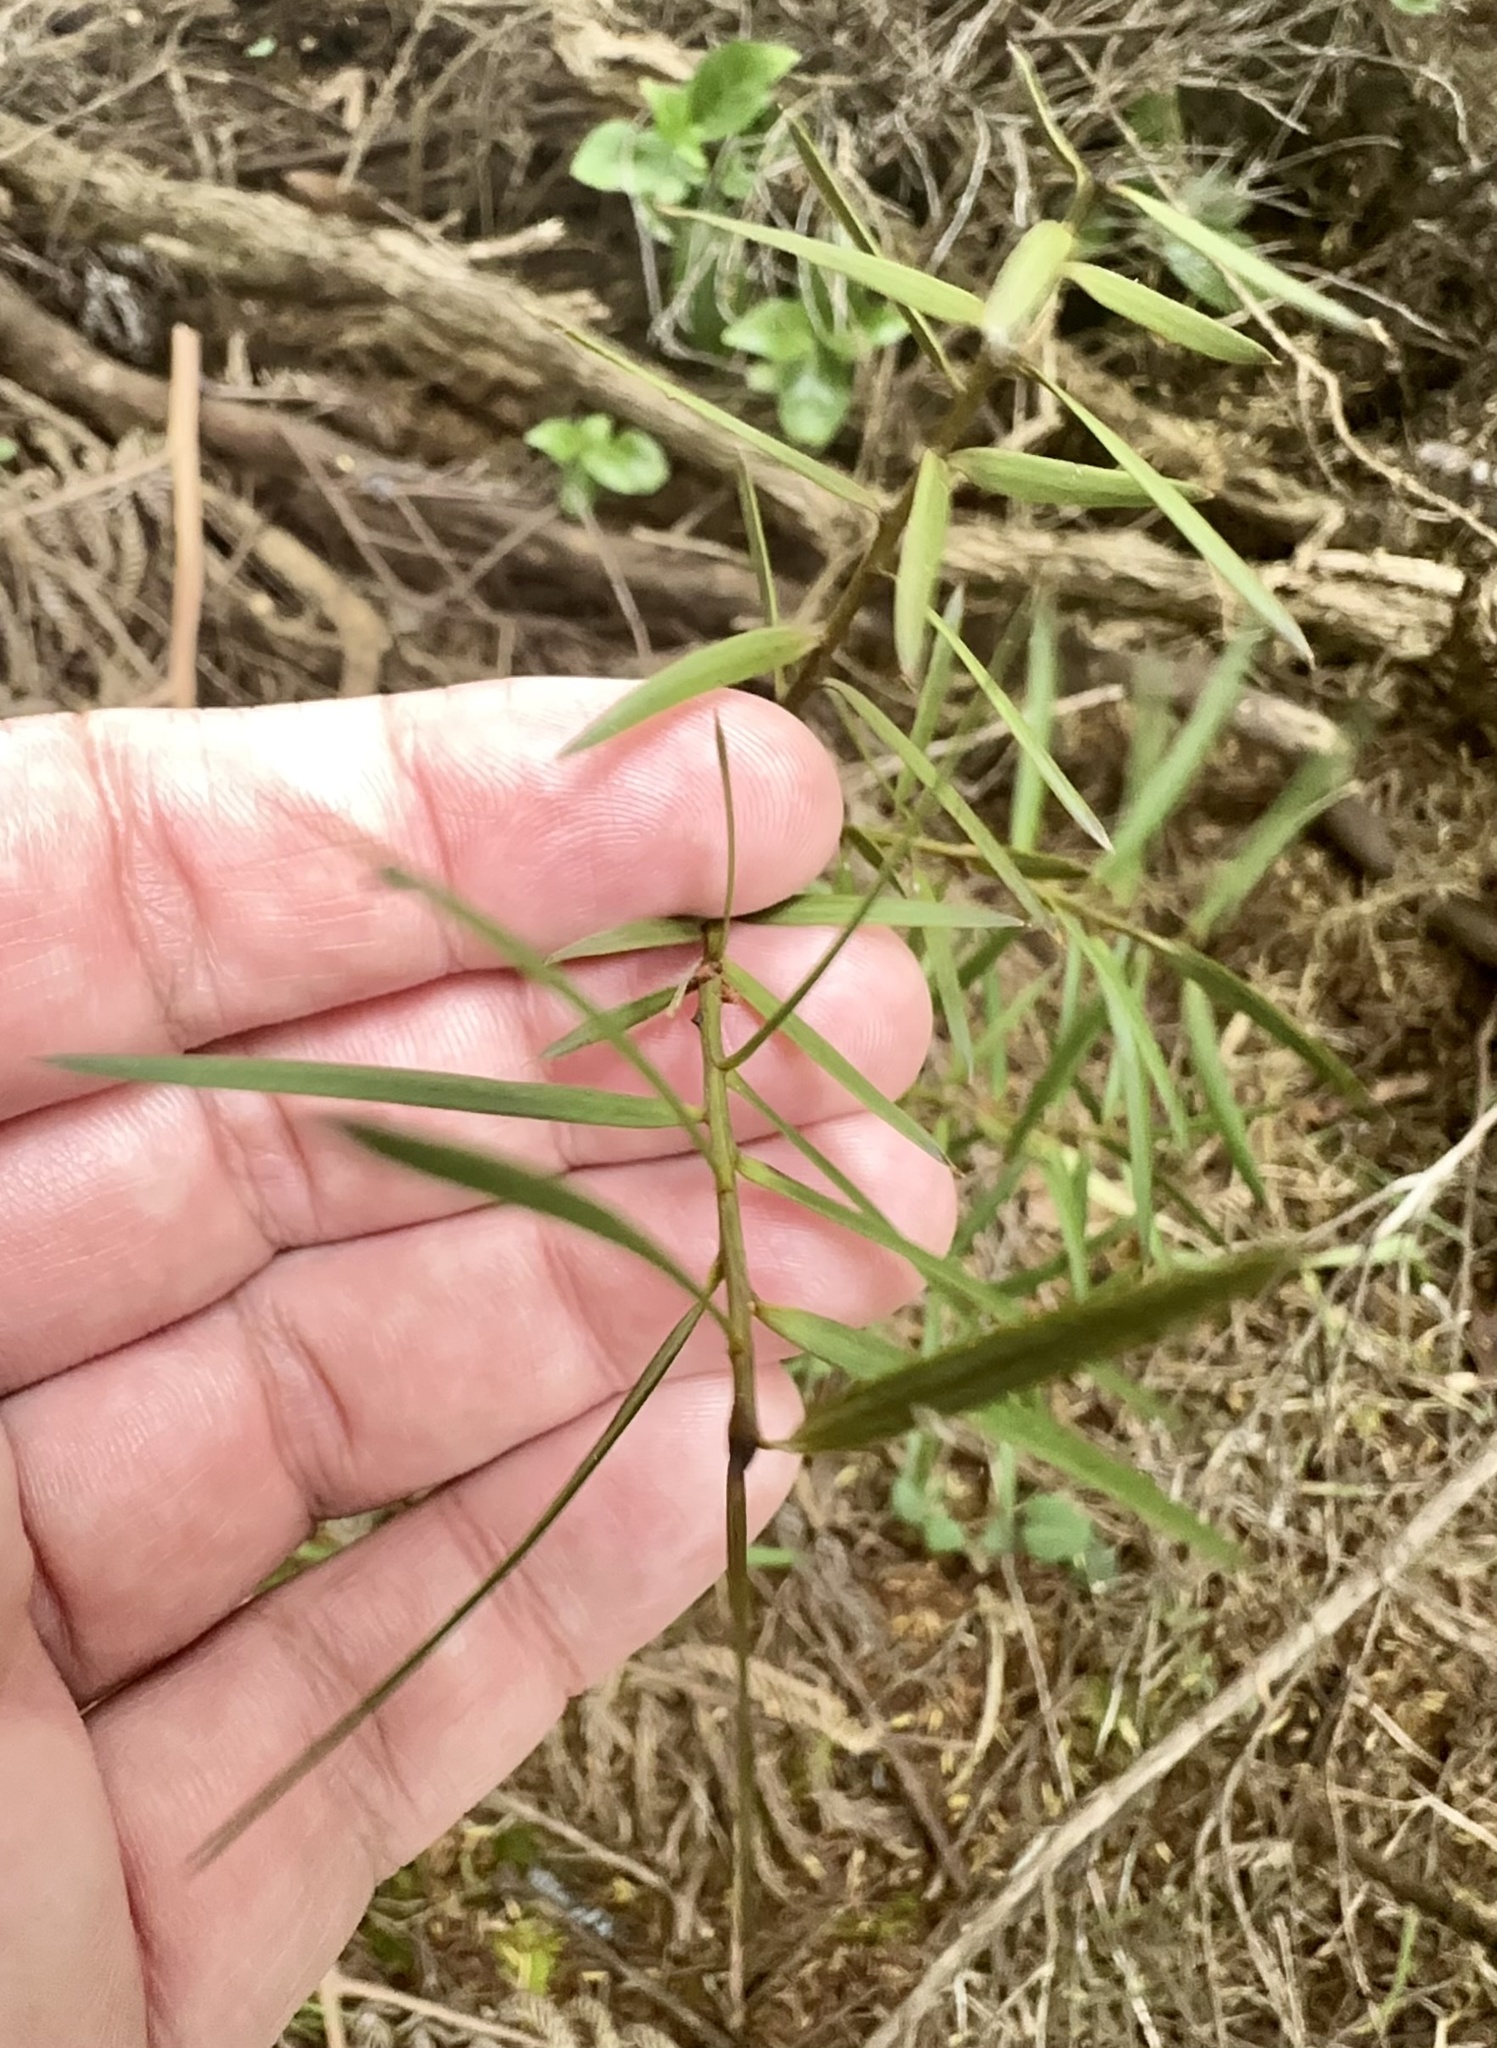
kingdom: Plantae
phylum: Tracheophyta
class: Pinopsida
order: Pinales
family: Podocarpaceae
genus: Podocarpus
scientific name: Podocarpus totara
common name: Totara
